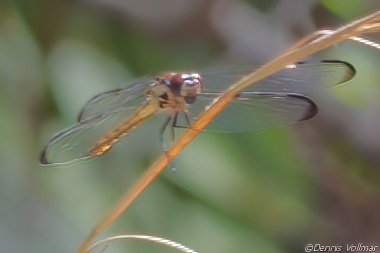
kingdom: Animalia
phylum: Arthropoda
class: Insecta
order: Odonata
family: Libellulidae
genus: Libellula
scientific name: Libellula incesta
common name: Slaty skimmer
